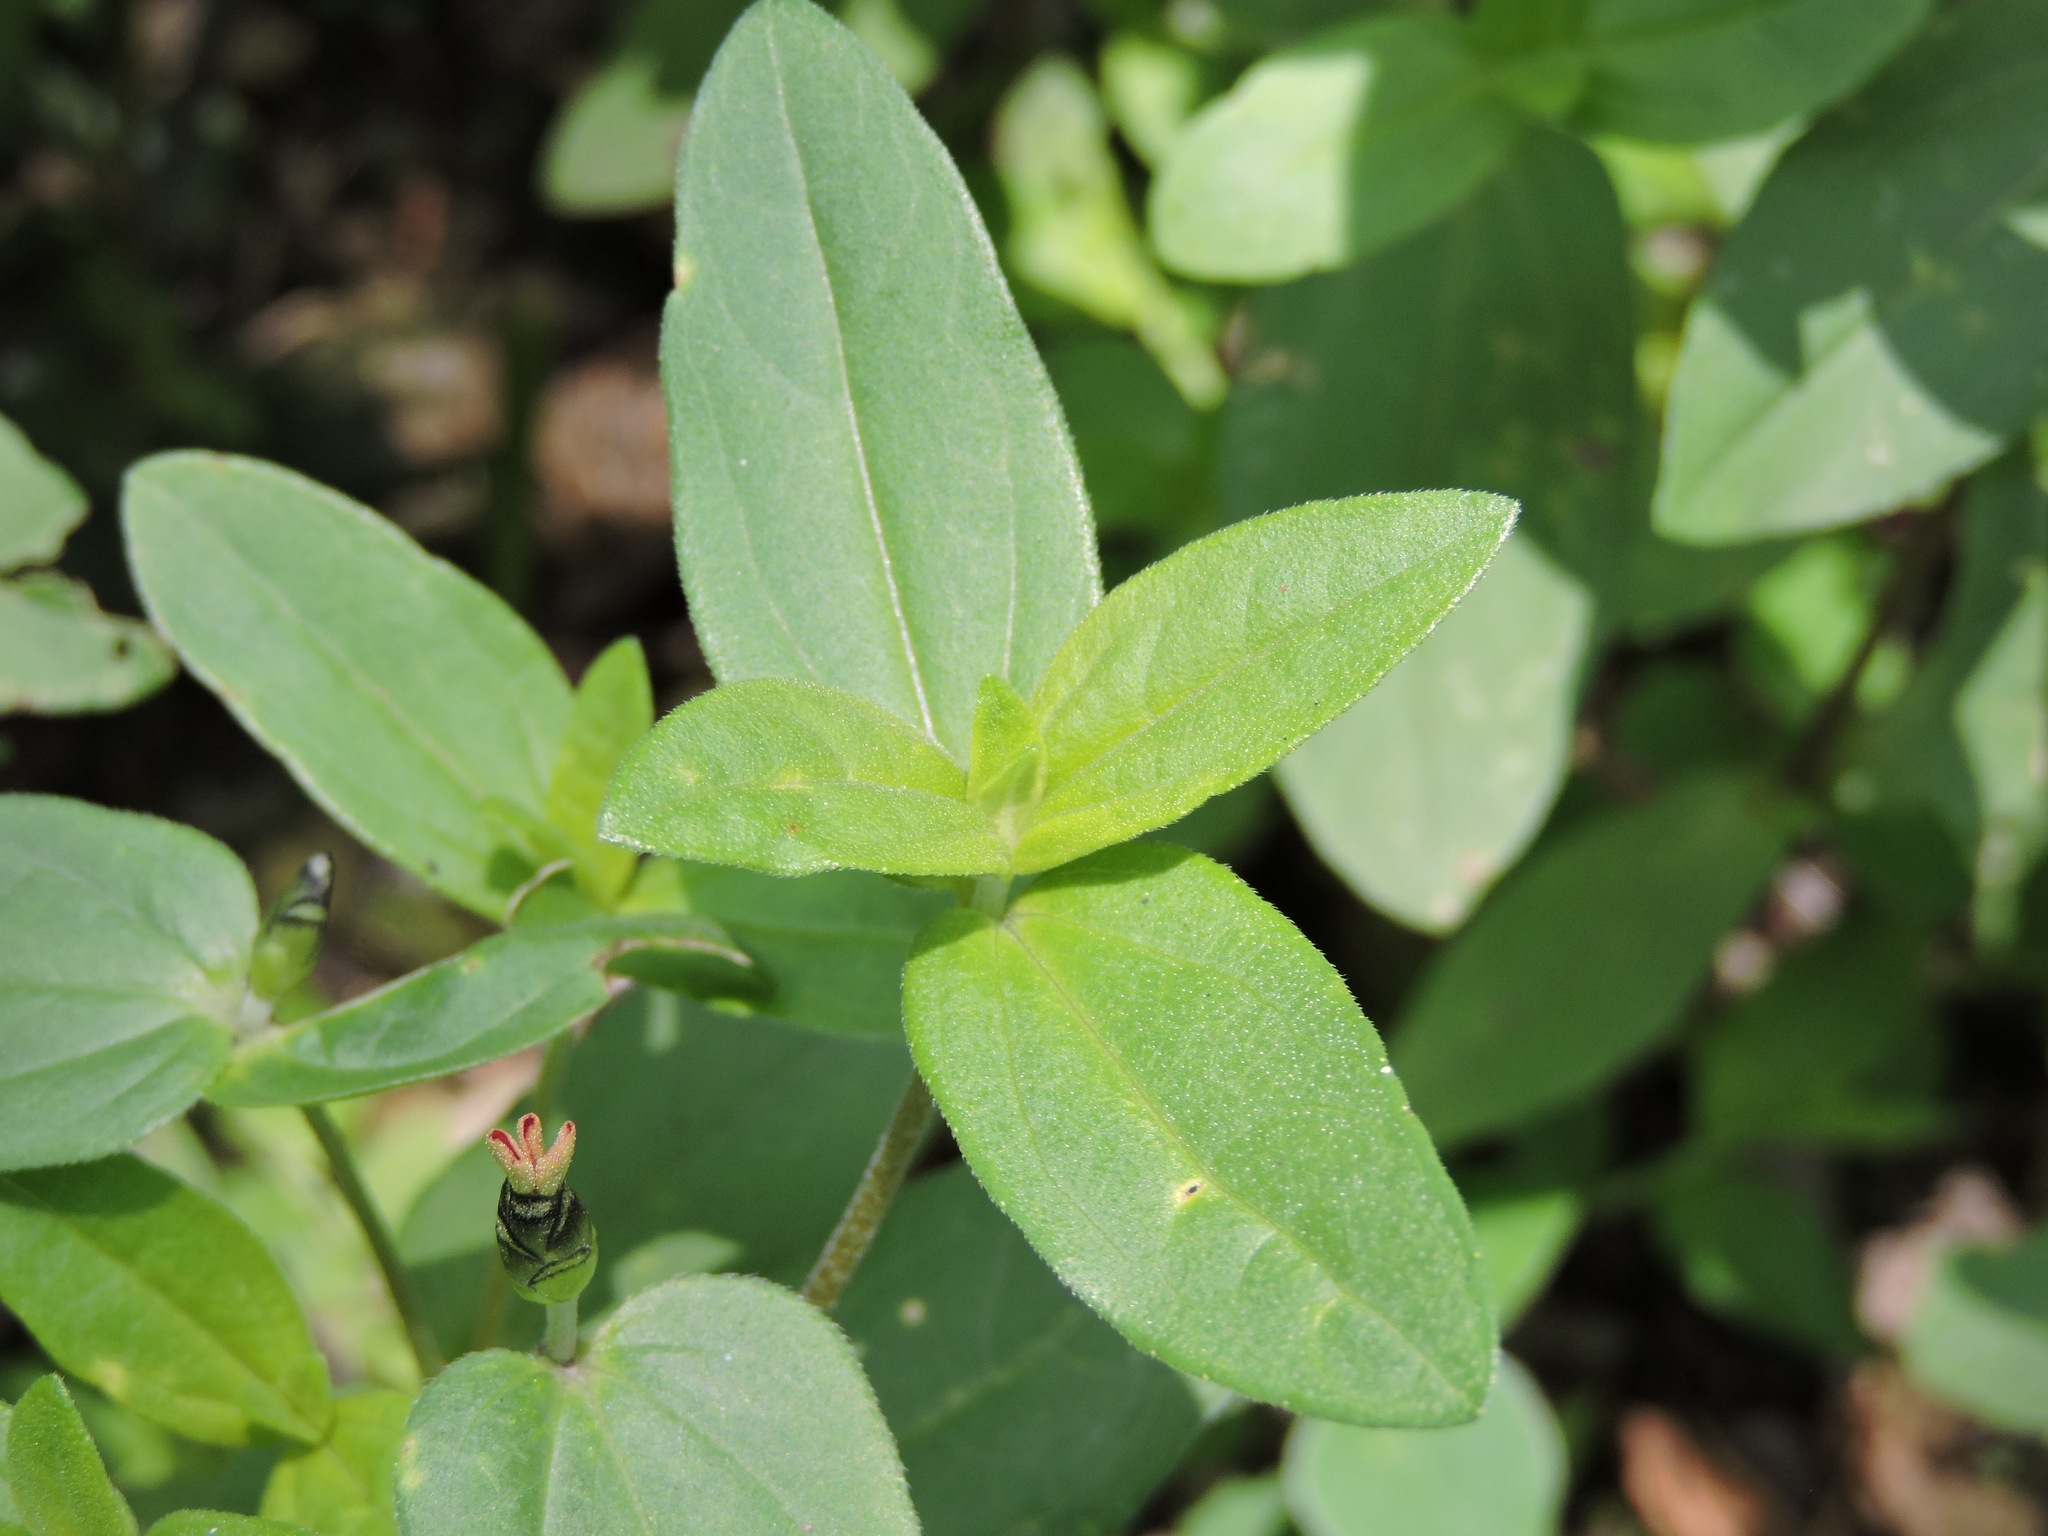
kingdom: Plantae
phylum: Tracheophyta
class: Magnoliopsida
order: Asterales
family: Asteraceae
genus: Zinnia
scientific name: Zinnia peruviana
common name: Peruvian zinnia
